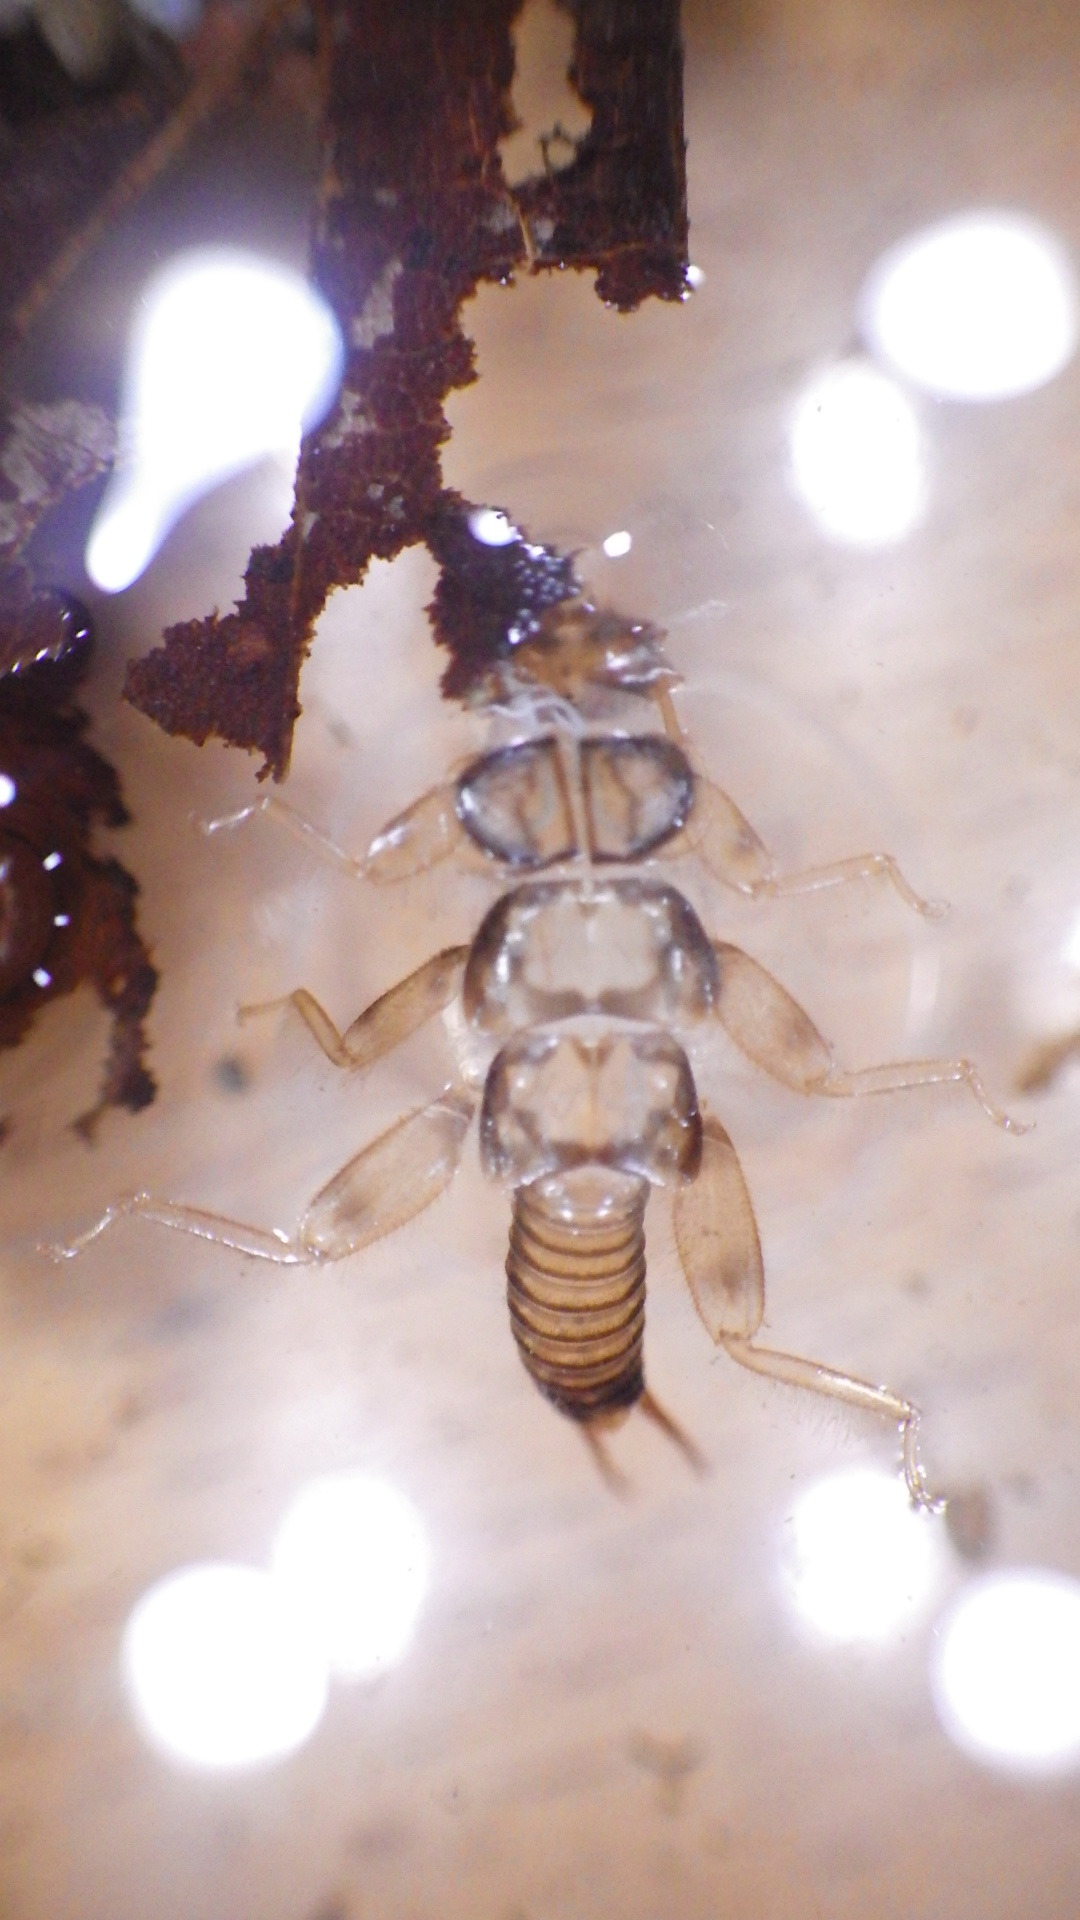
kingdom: Animalia
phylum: Arthropoda
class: Insecta
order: Plecoptera
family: Perlidae
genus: Eccoptura
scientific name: Eccoptura xanthenes
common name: Yellow stone
